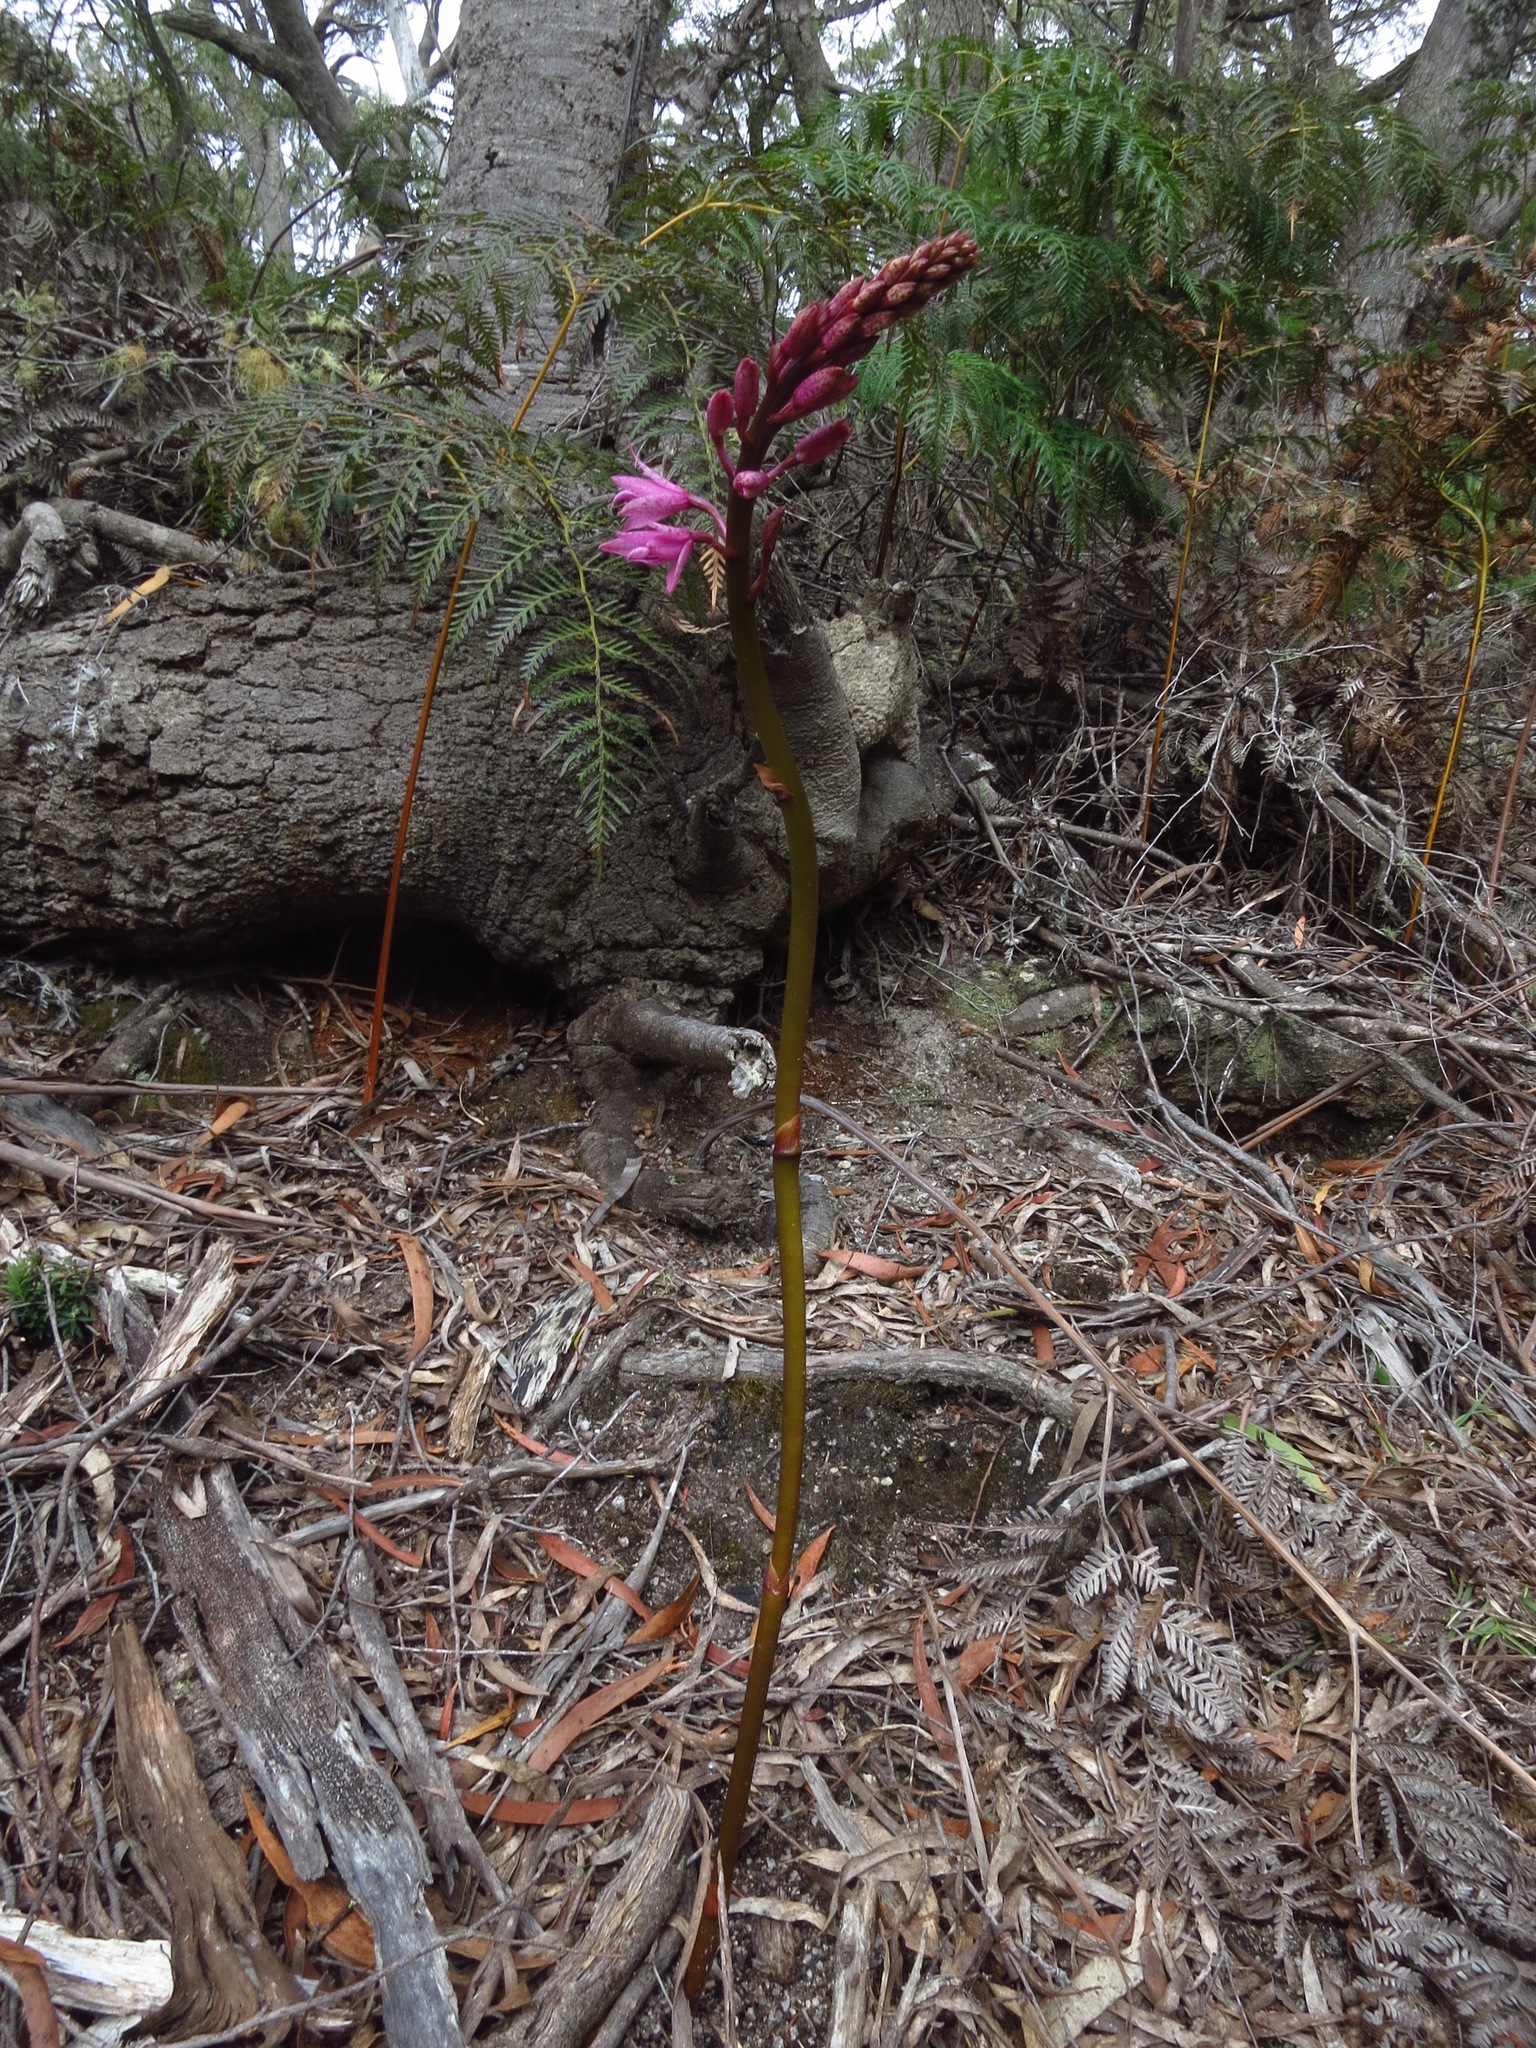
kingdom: Plantae
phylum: Tracheophyta
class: Liliopsida
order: Asparagales
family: Orchidaceae
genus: Dipodium
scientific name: Dipodium roseum
